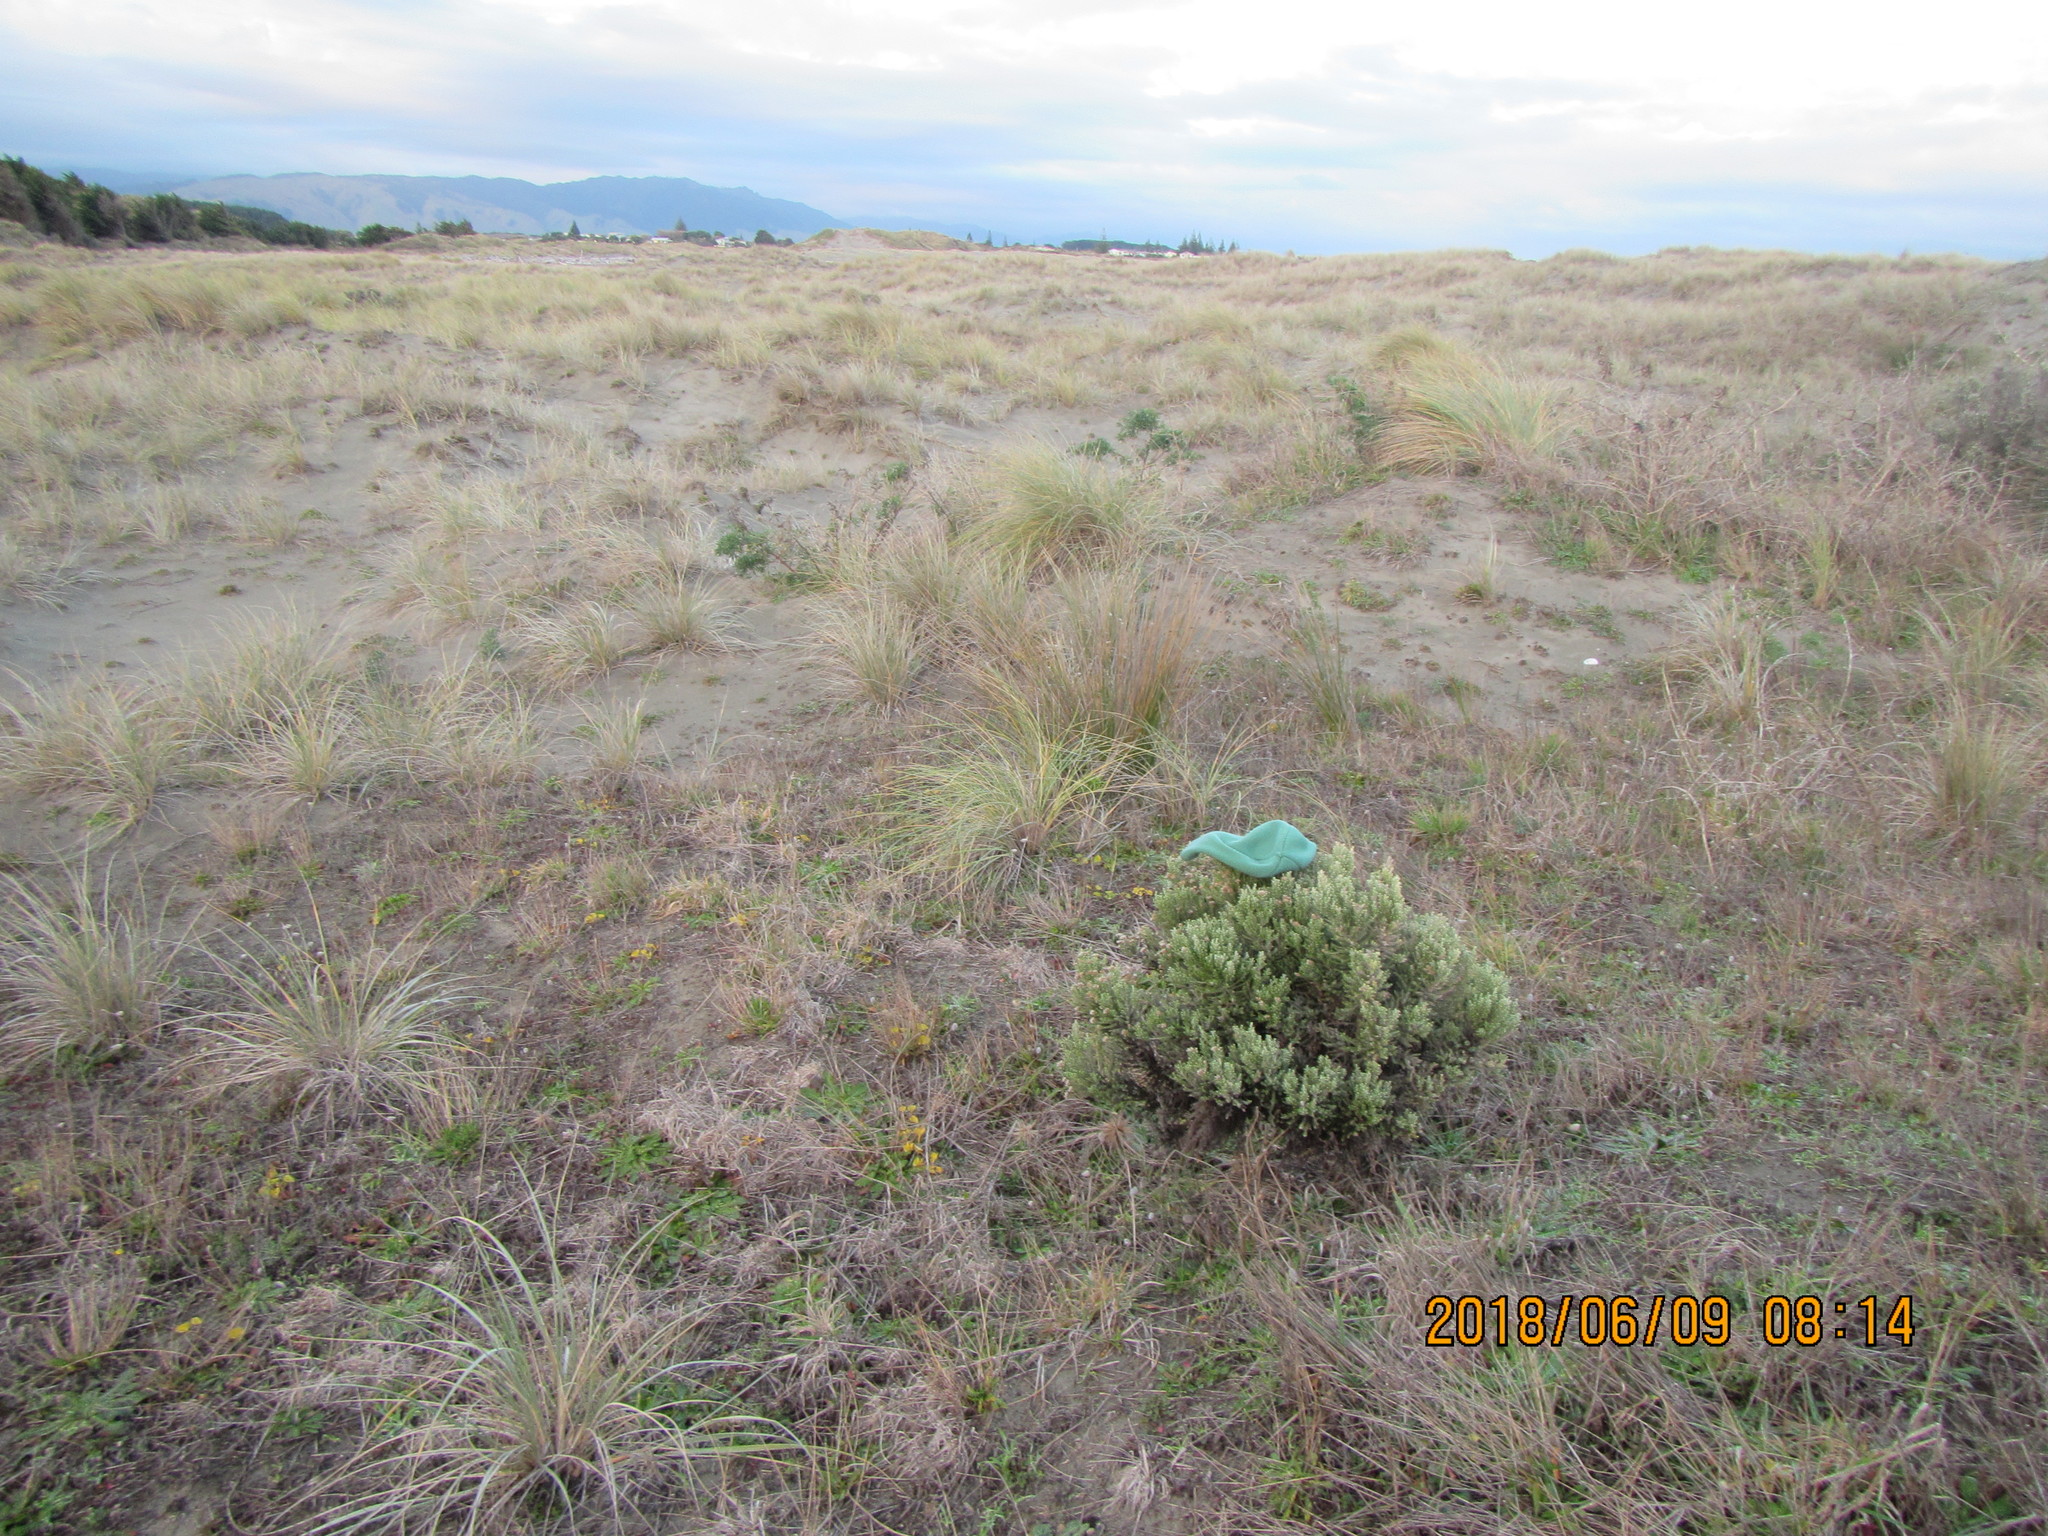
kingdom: Plantae
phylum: Tracheophyta
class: Magnoliopsida
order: Asterales
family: Asteraceae
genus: Ozothamnus
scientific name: Ozothamnus leptophyllus
